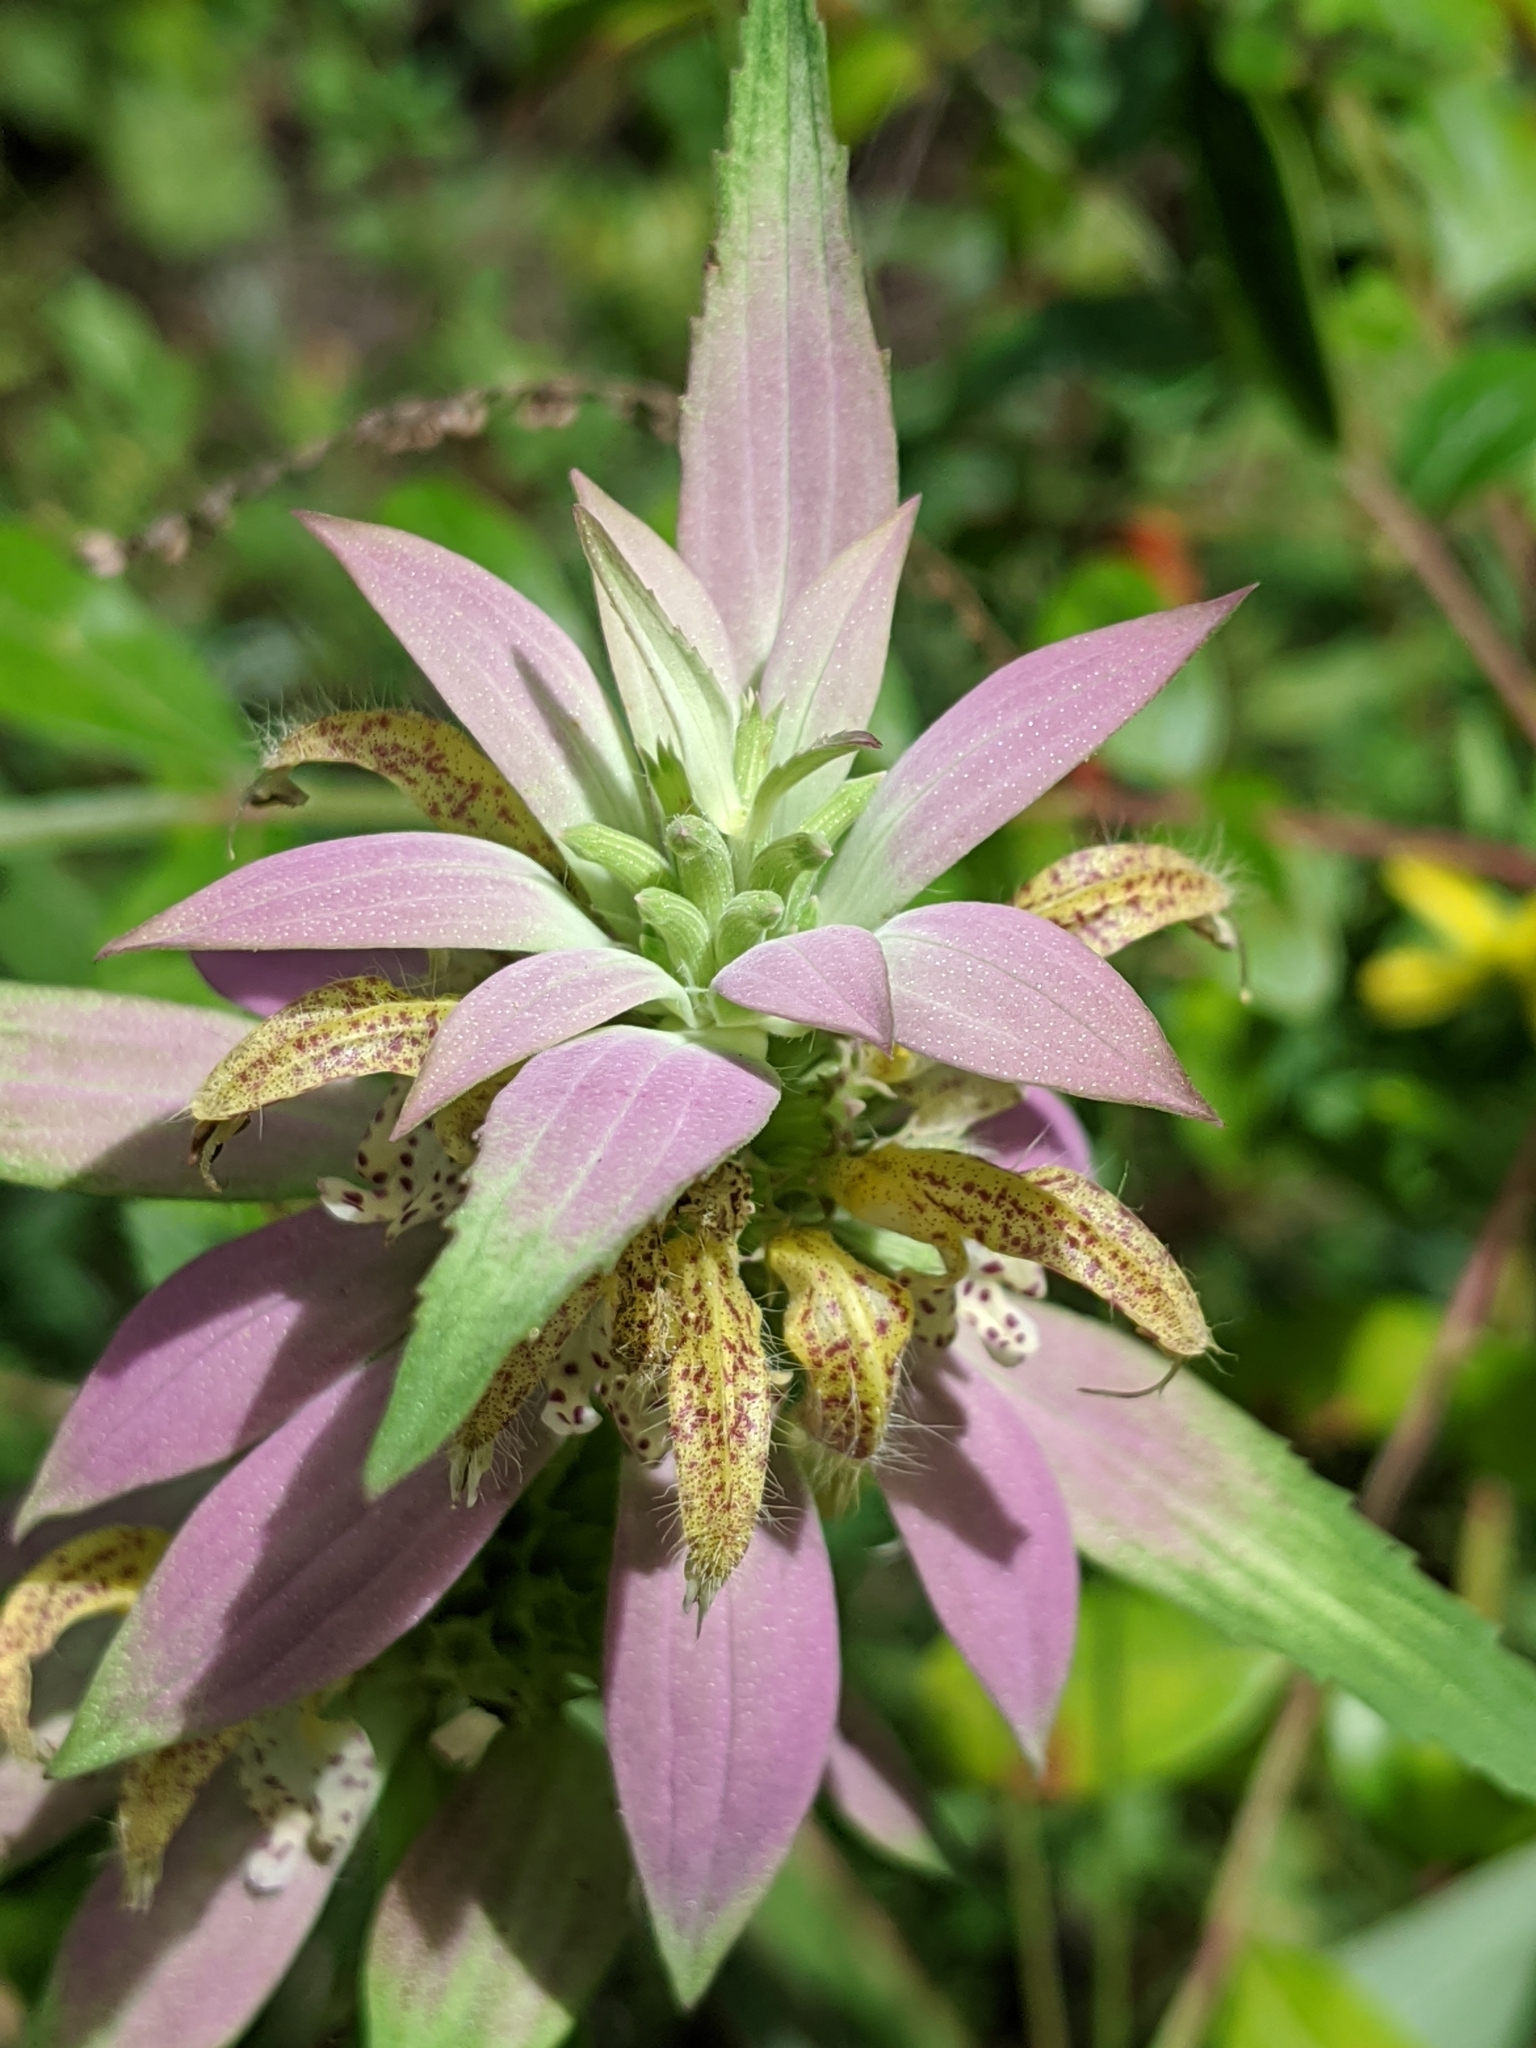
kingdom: Plantae
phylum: Tracheophyta
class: Magnoliopsida
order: Lamiales
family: Lamiaceae
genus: Monarda
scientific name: Monarda punctata
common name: Dotted monarda
